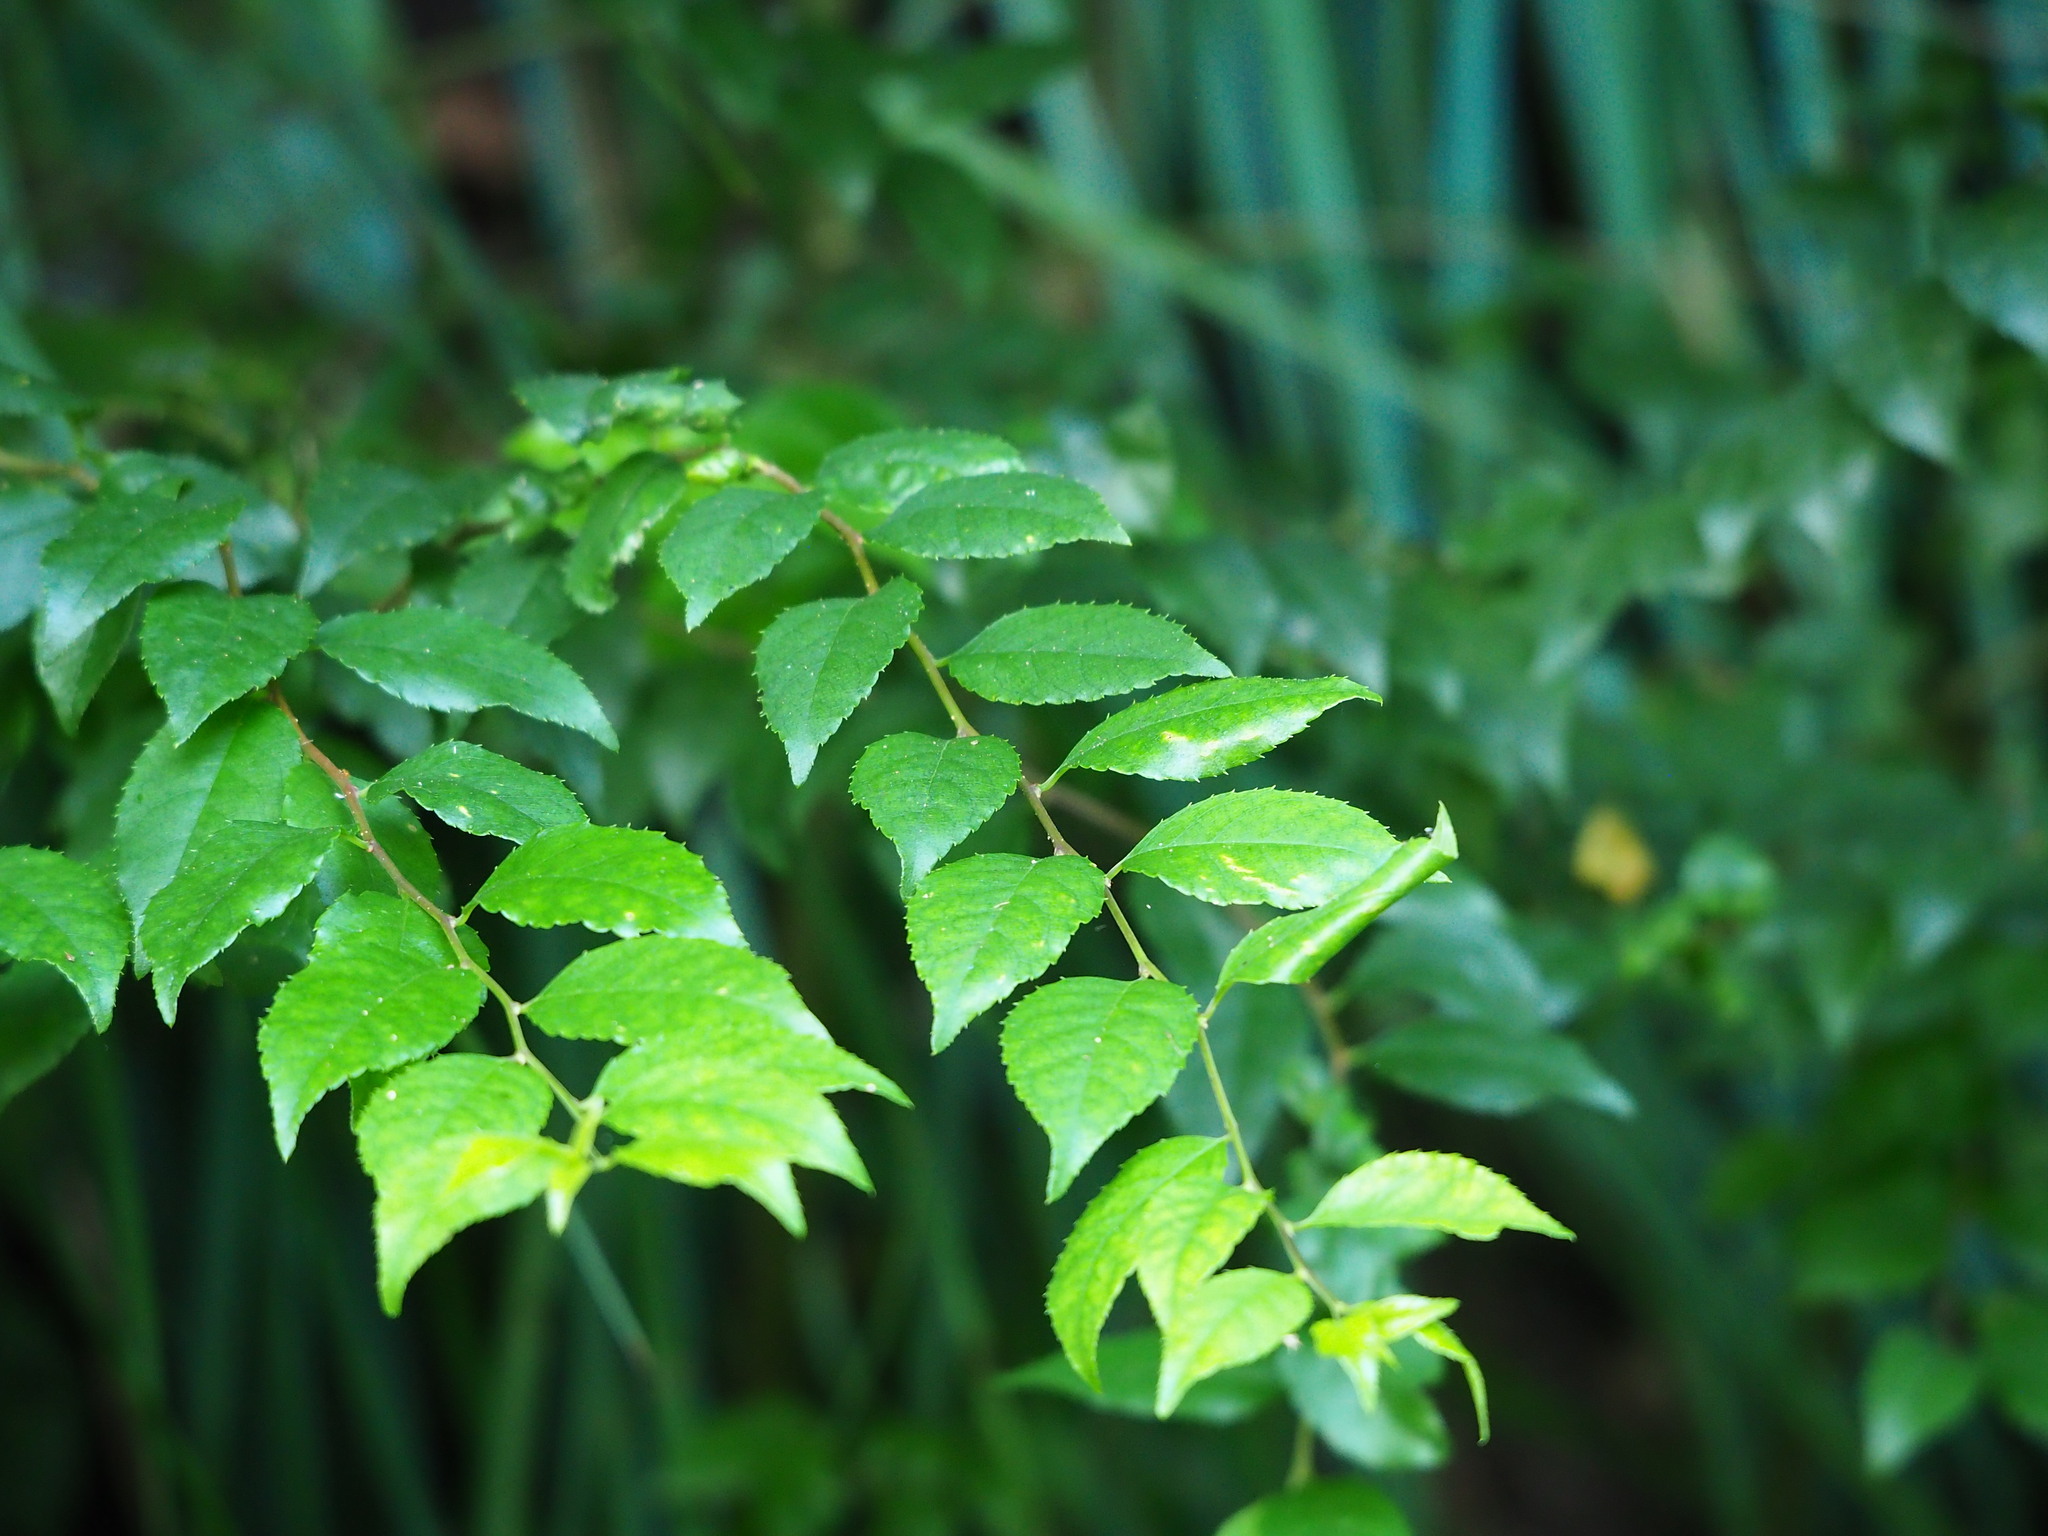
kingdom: Plantae
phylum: Tracheophyta
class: Magnoliopsida
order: Aquifoliales
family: Aquifoliaceae
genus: Ilex
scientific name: Ilex asprella
